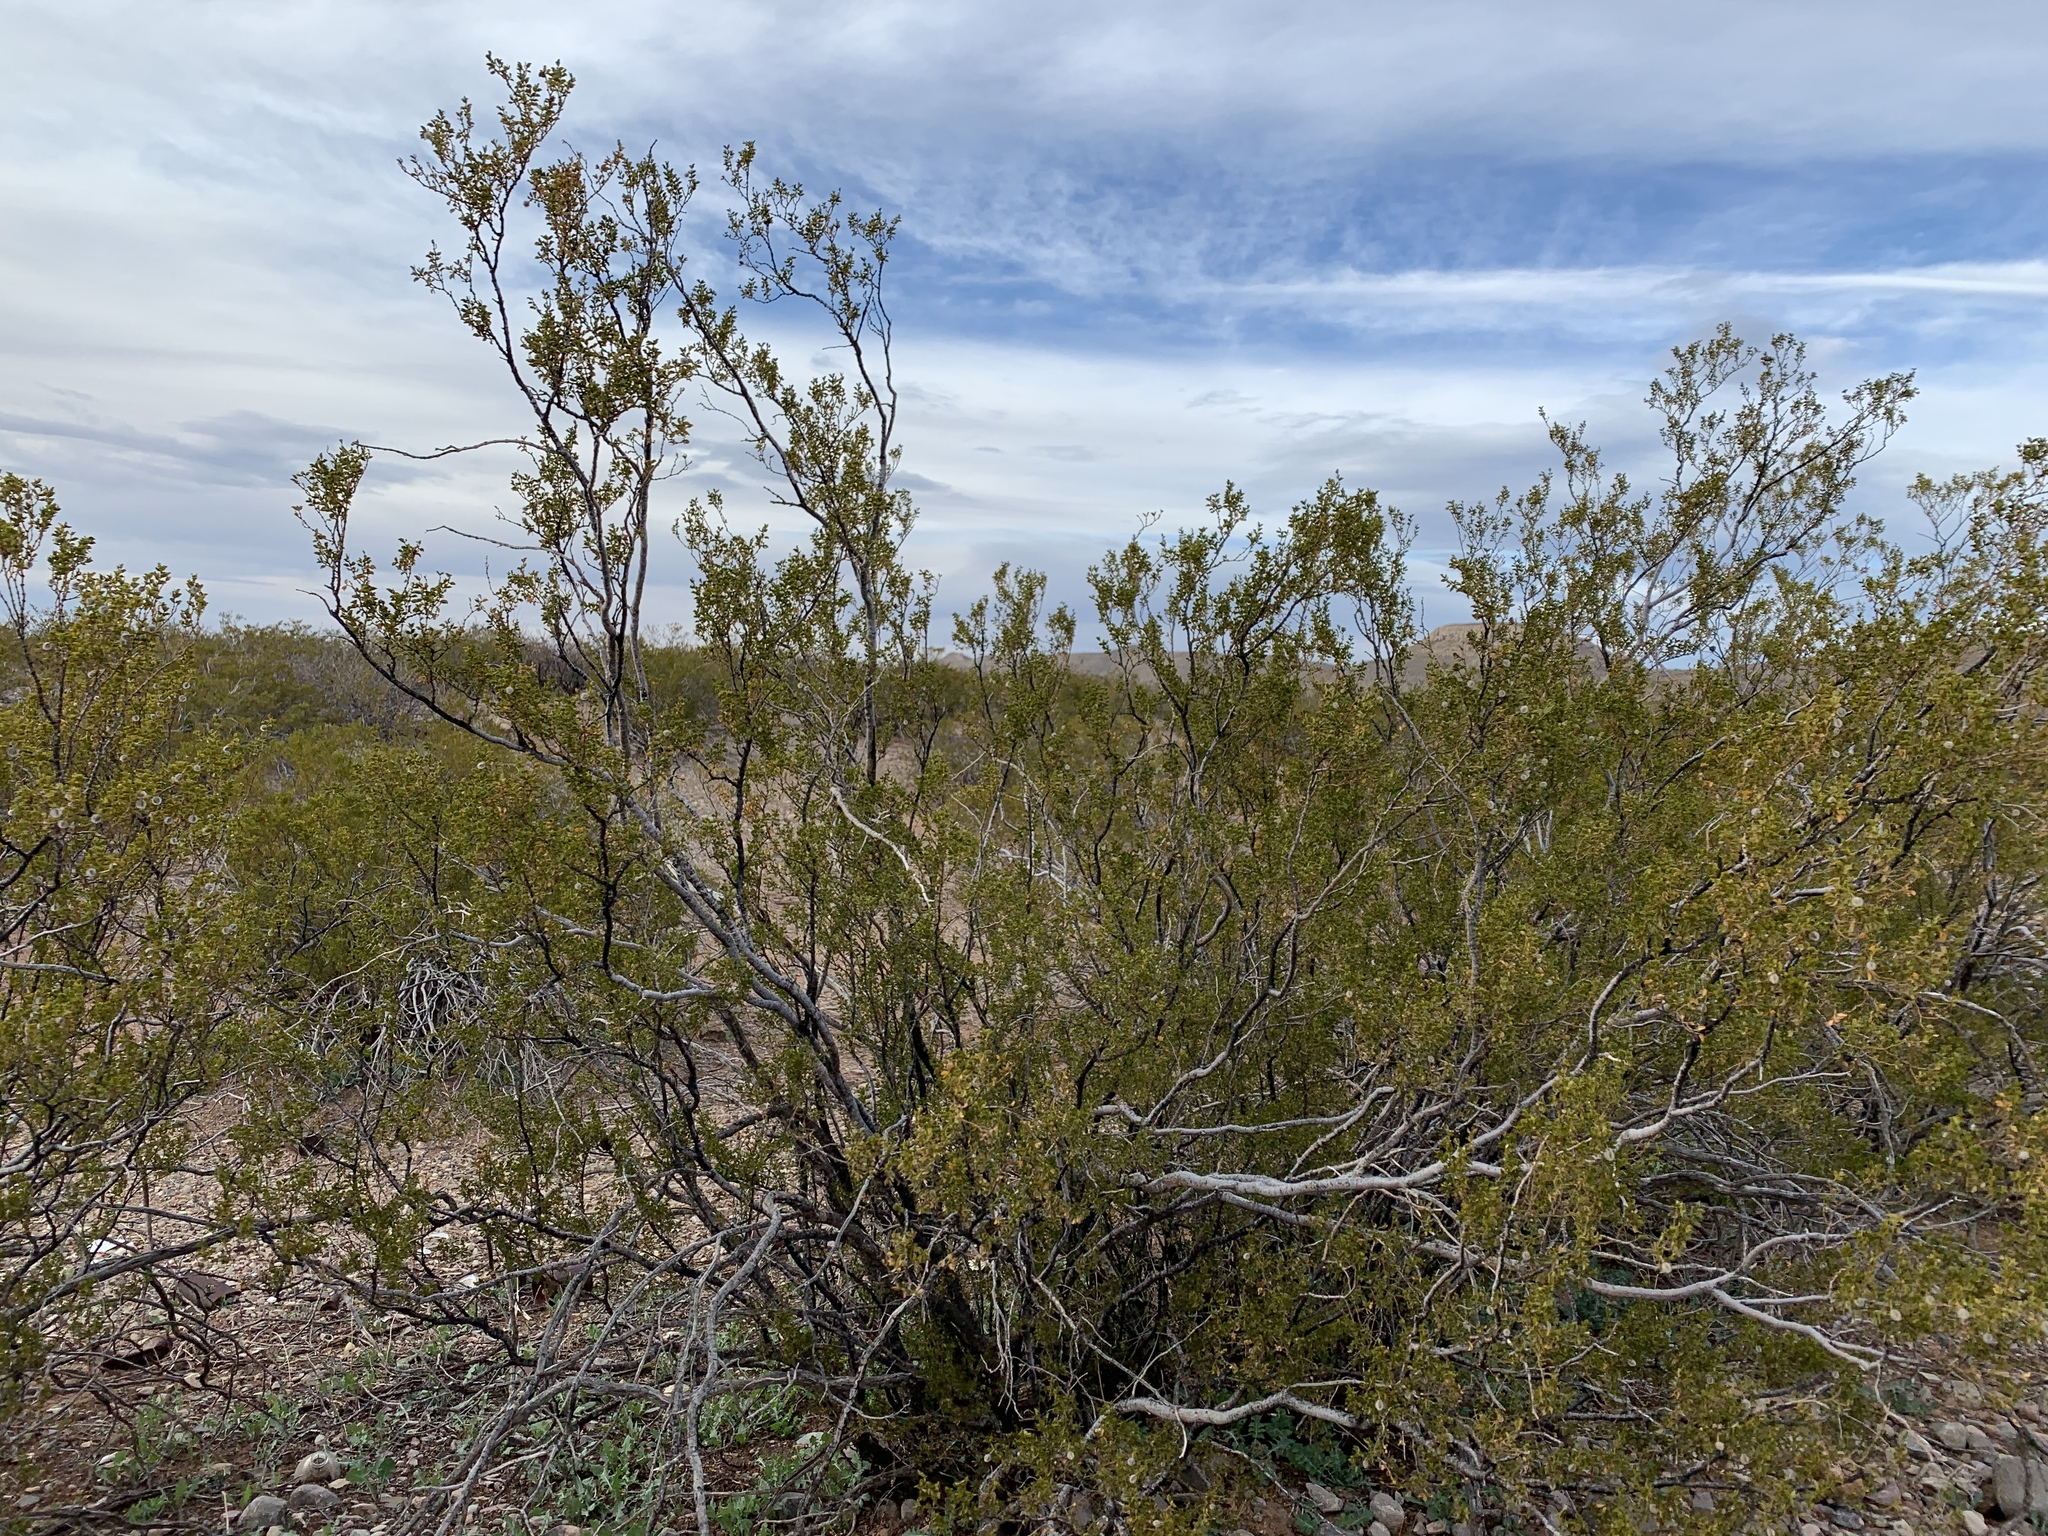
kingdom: Plantae
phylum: Tracheophyta
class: Magnoliopsida
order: Zygophyllales
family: Zygophyllaceae
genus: Larrea
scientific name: Larrea tridentata
